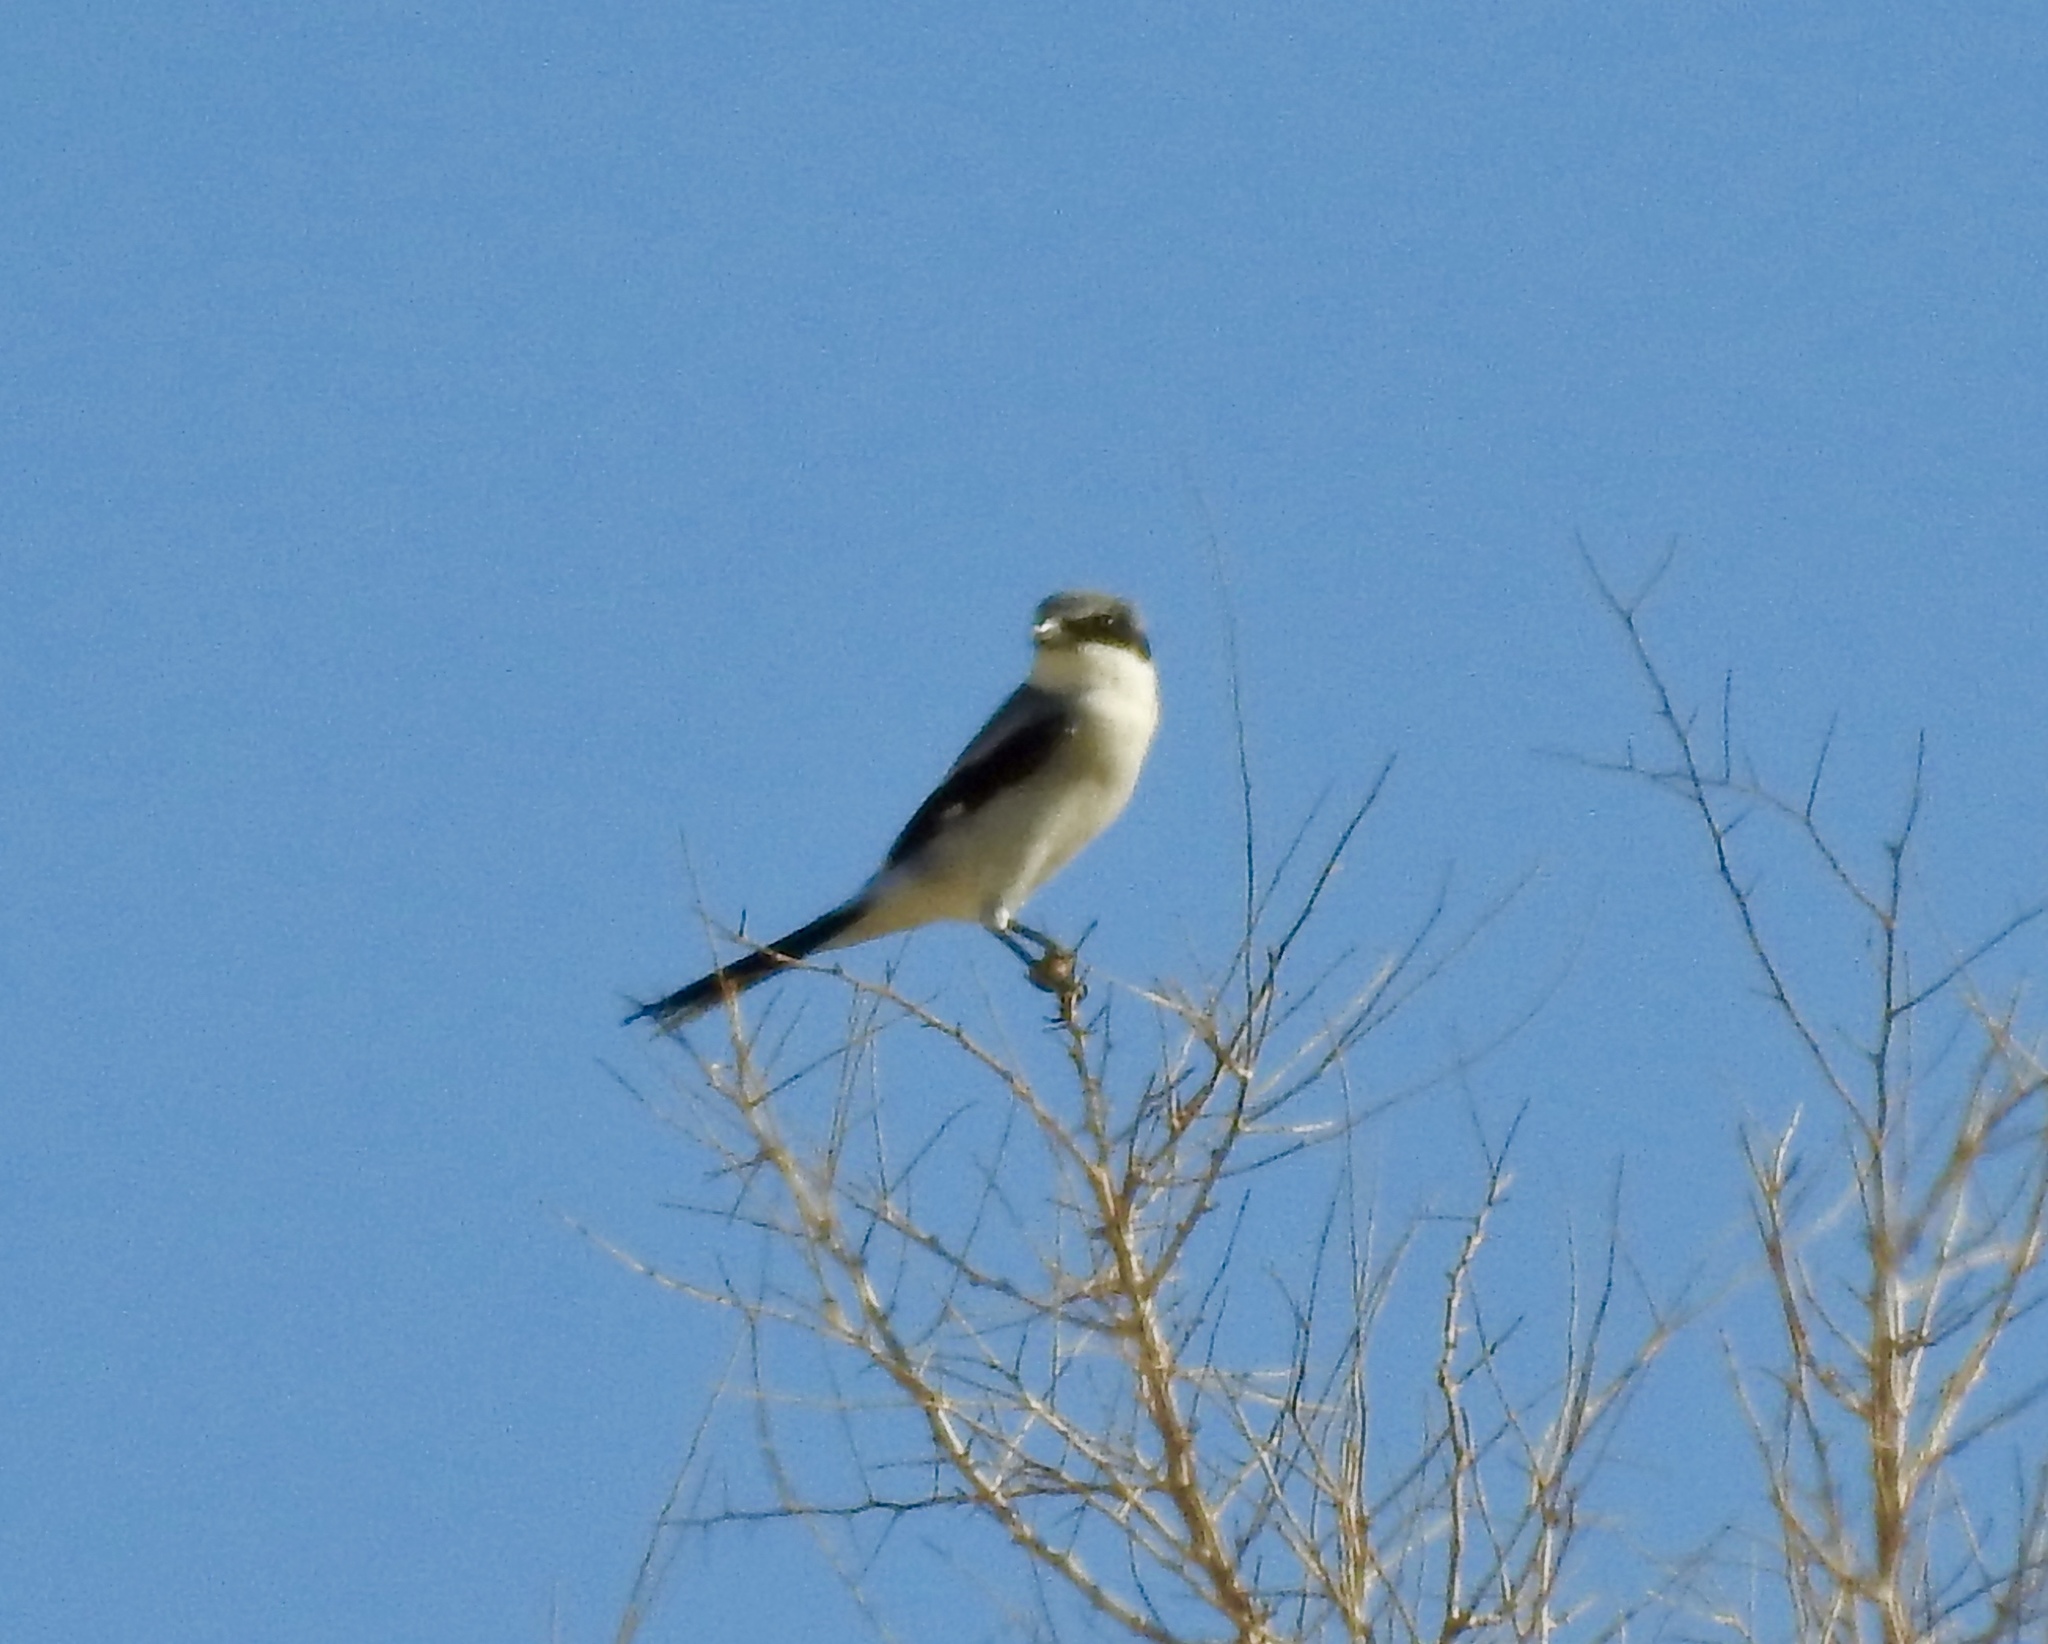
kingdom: Animalia
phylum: Chordata
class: Aves
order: Passeriformes
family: Laniidae
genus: Lanius
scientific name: Lanius ludovicianus
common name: Loggerhead shrike
